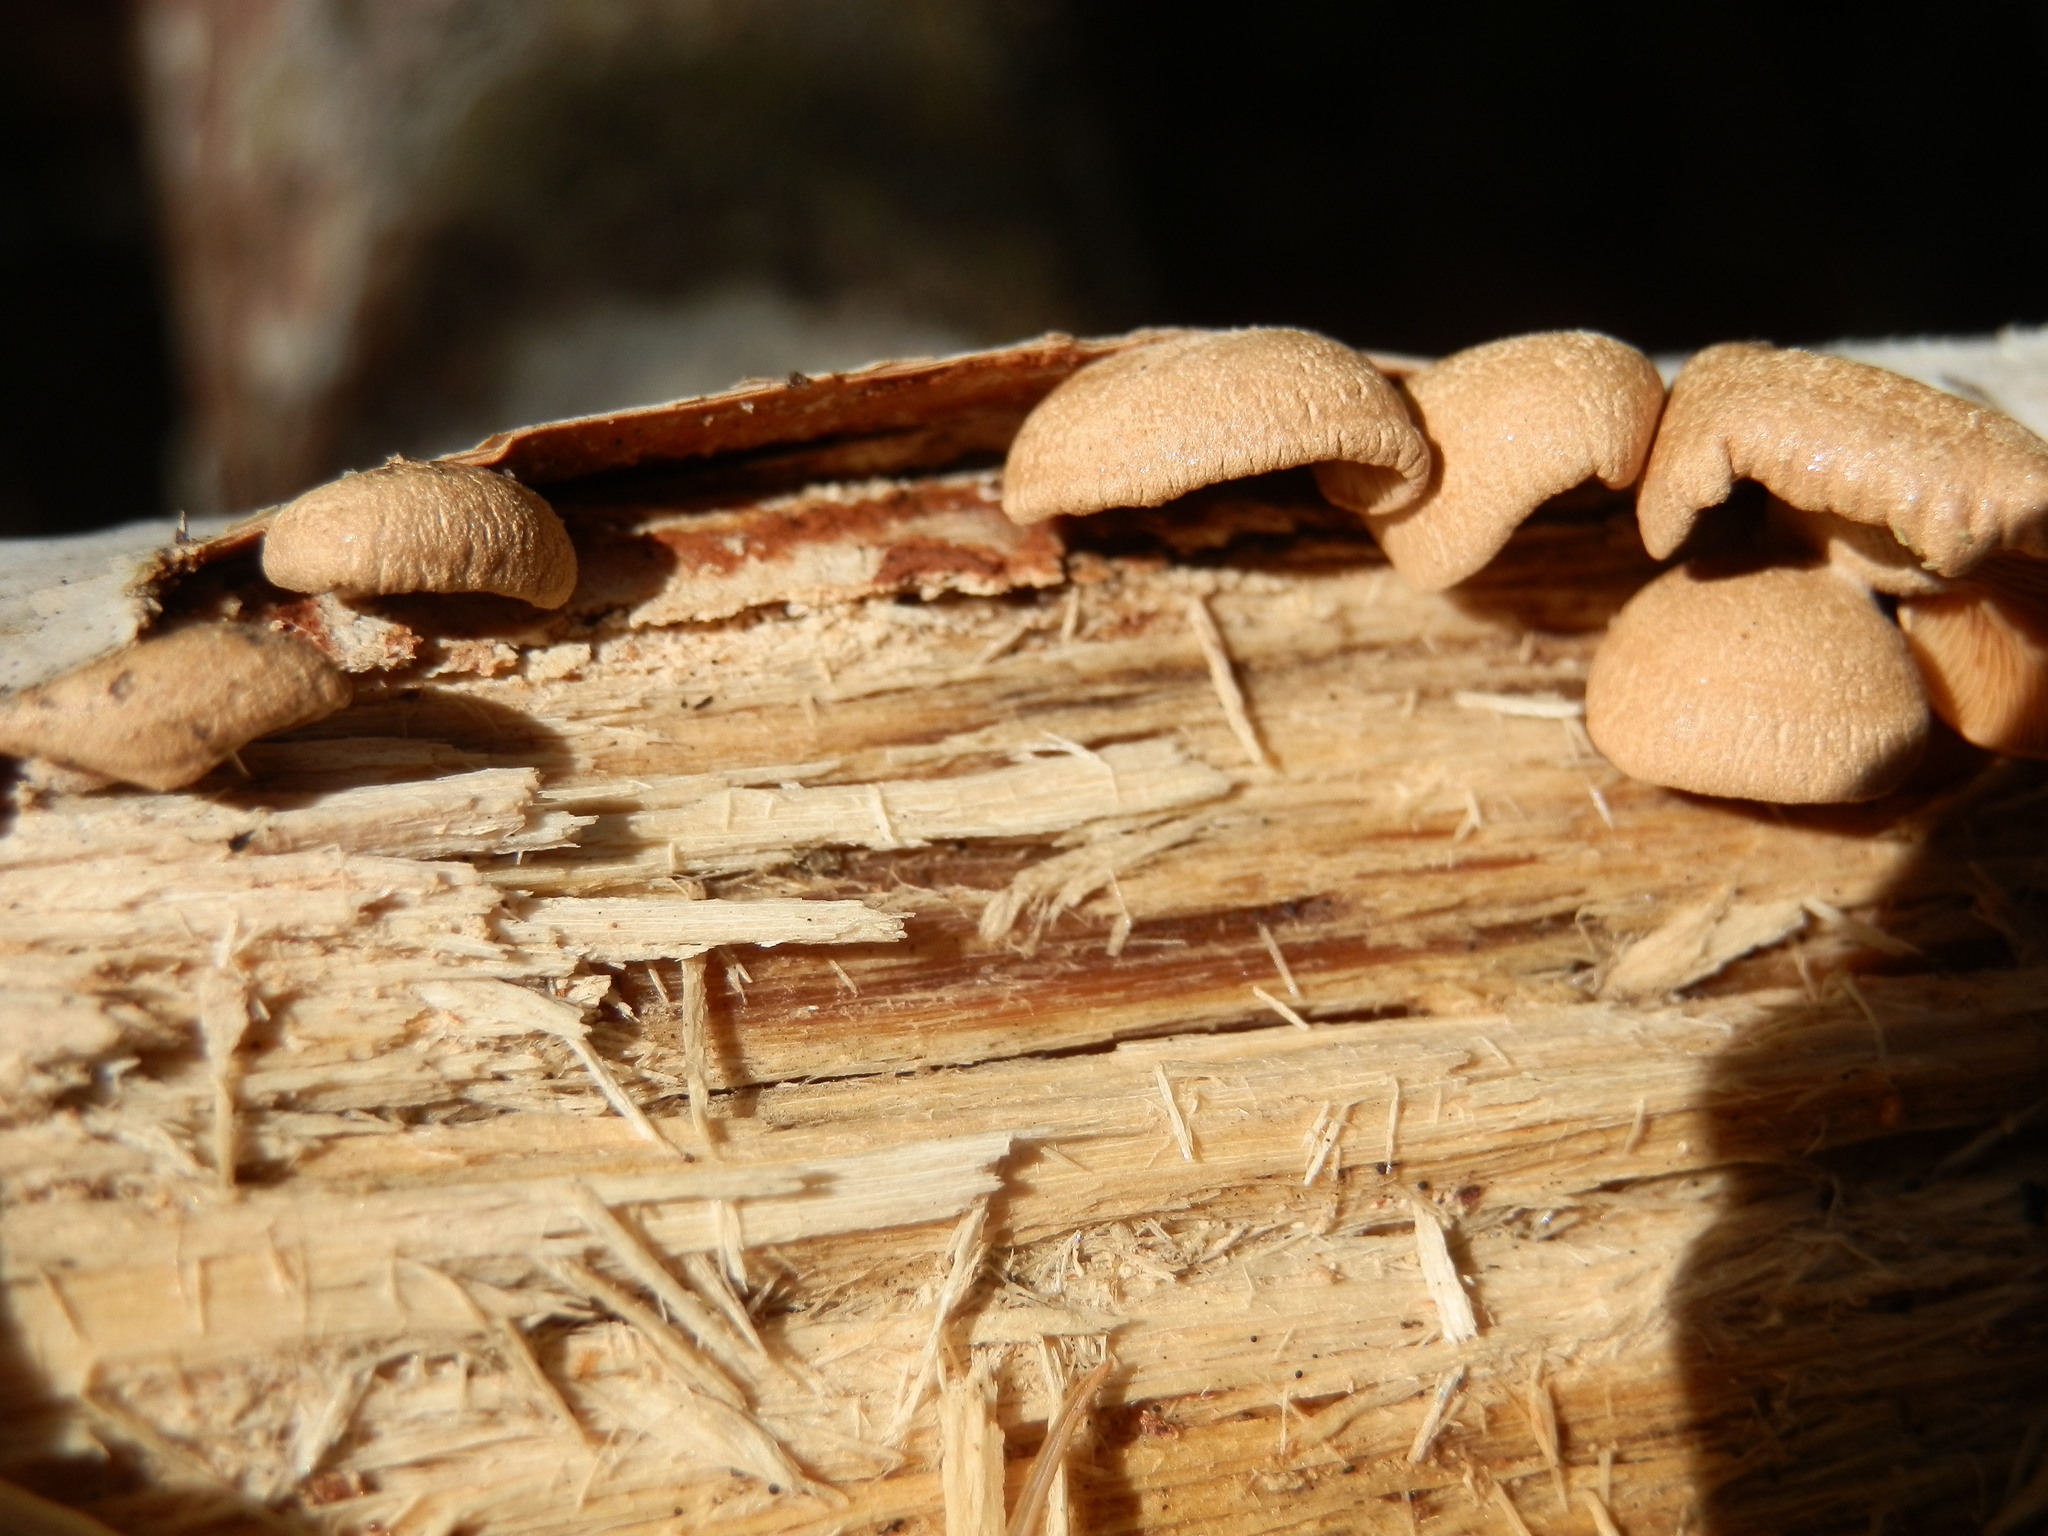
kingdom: Fungi
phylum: Basidiomycota
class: Agaricomycetes
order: Agaricales
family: Mycenaceae
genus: Panellus
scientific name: Panellus stipticus
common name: Bitter oysterling
